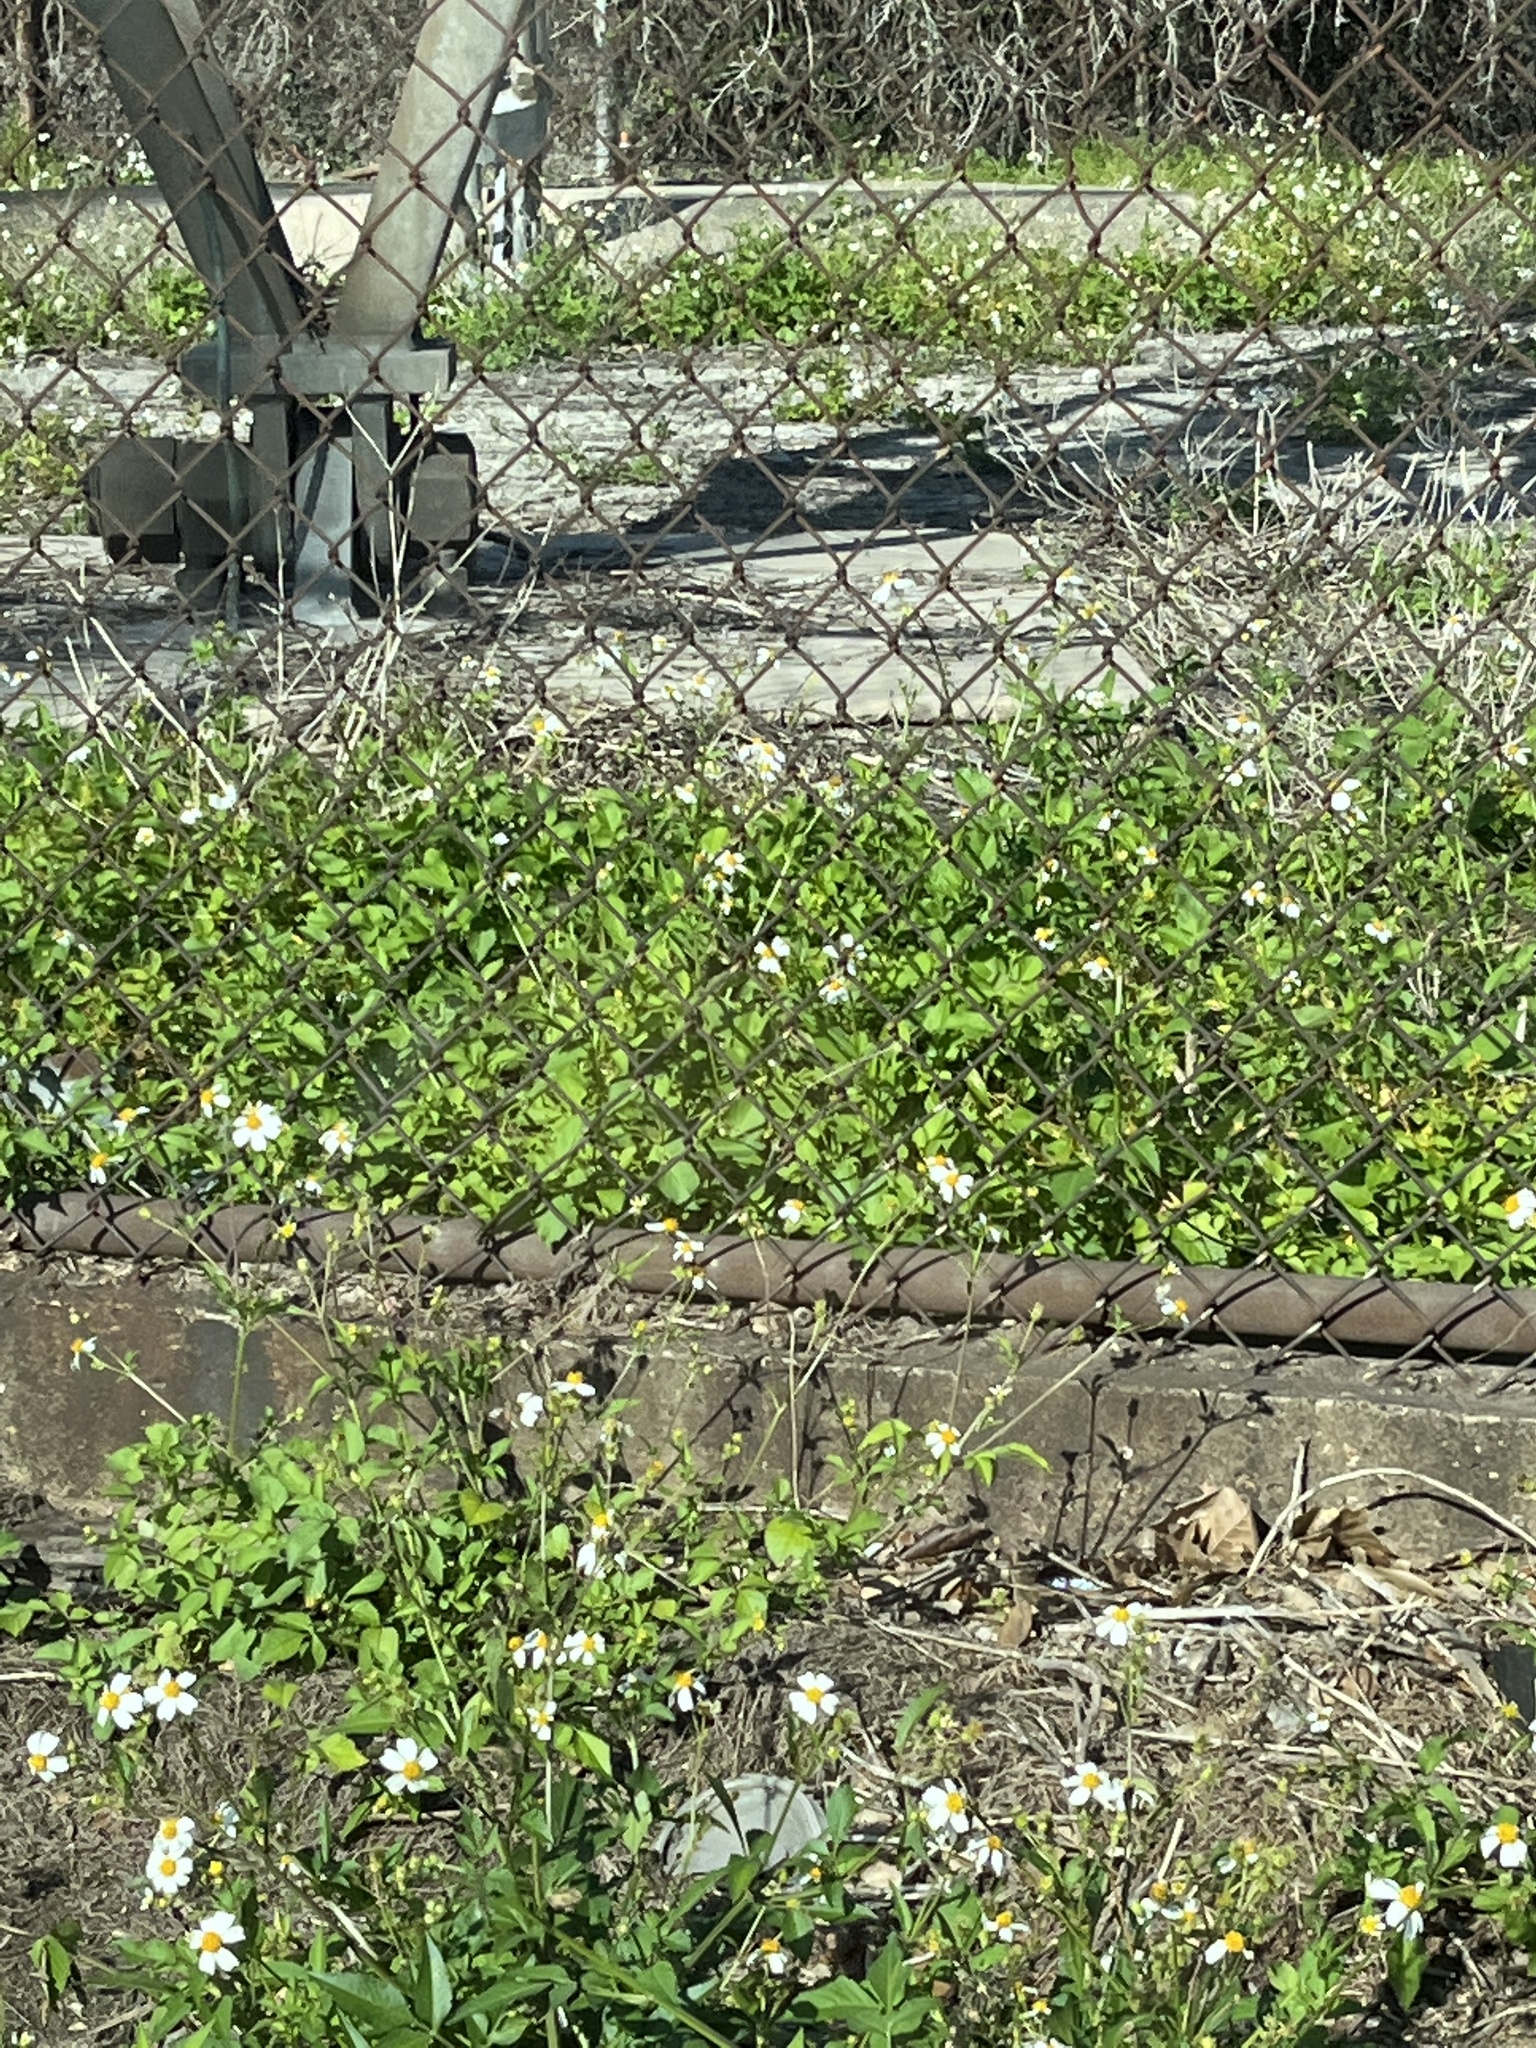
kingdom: Plantae
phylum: Tracheophyta
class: Magnoliopsida
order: Asterales
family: Asteraceae
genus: Bidens
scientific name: Bidens alba
